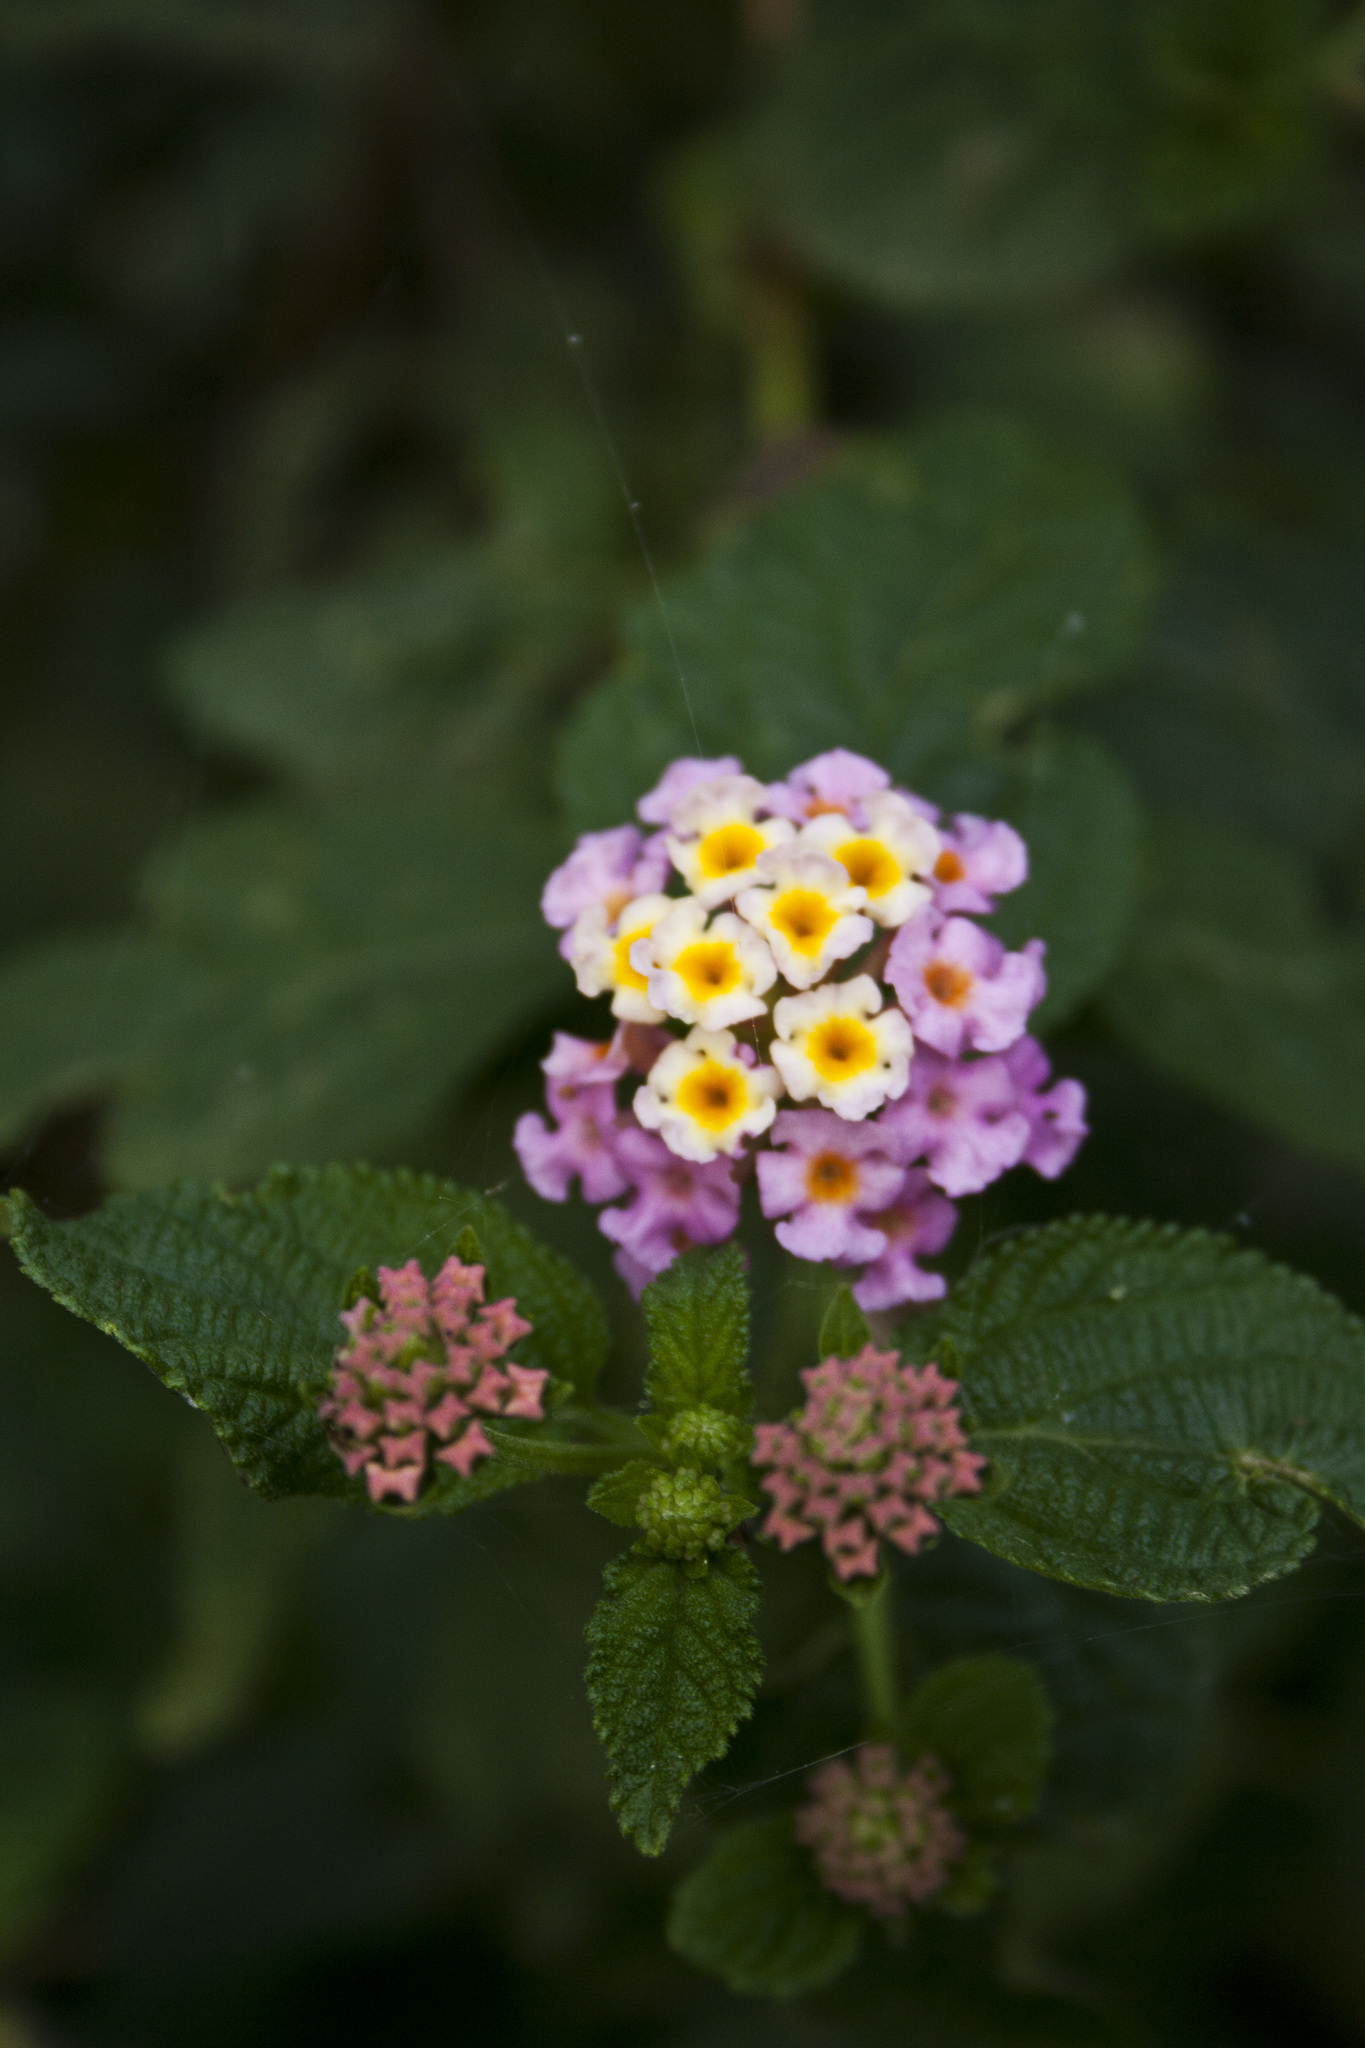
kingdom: Plantae
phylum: Tracheophyta
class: Magnoliopsida
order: Lamiales
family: Verbenaceae
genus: Lantana
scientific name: Lantana camara
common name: Lantana
